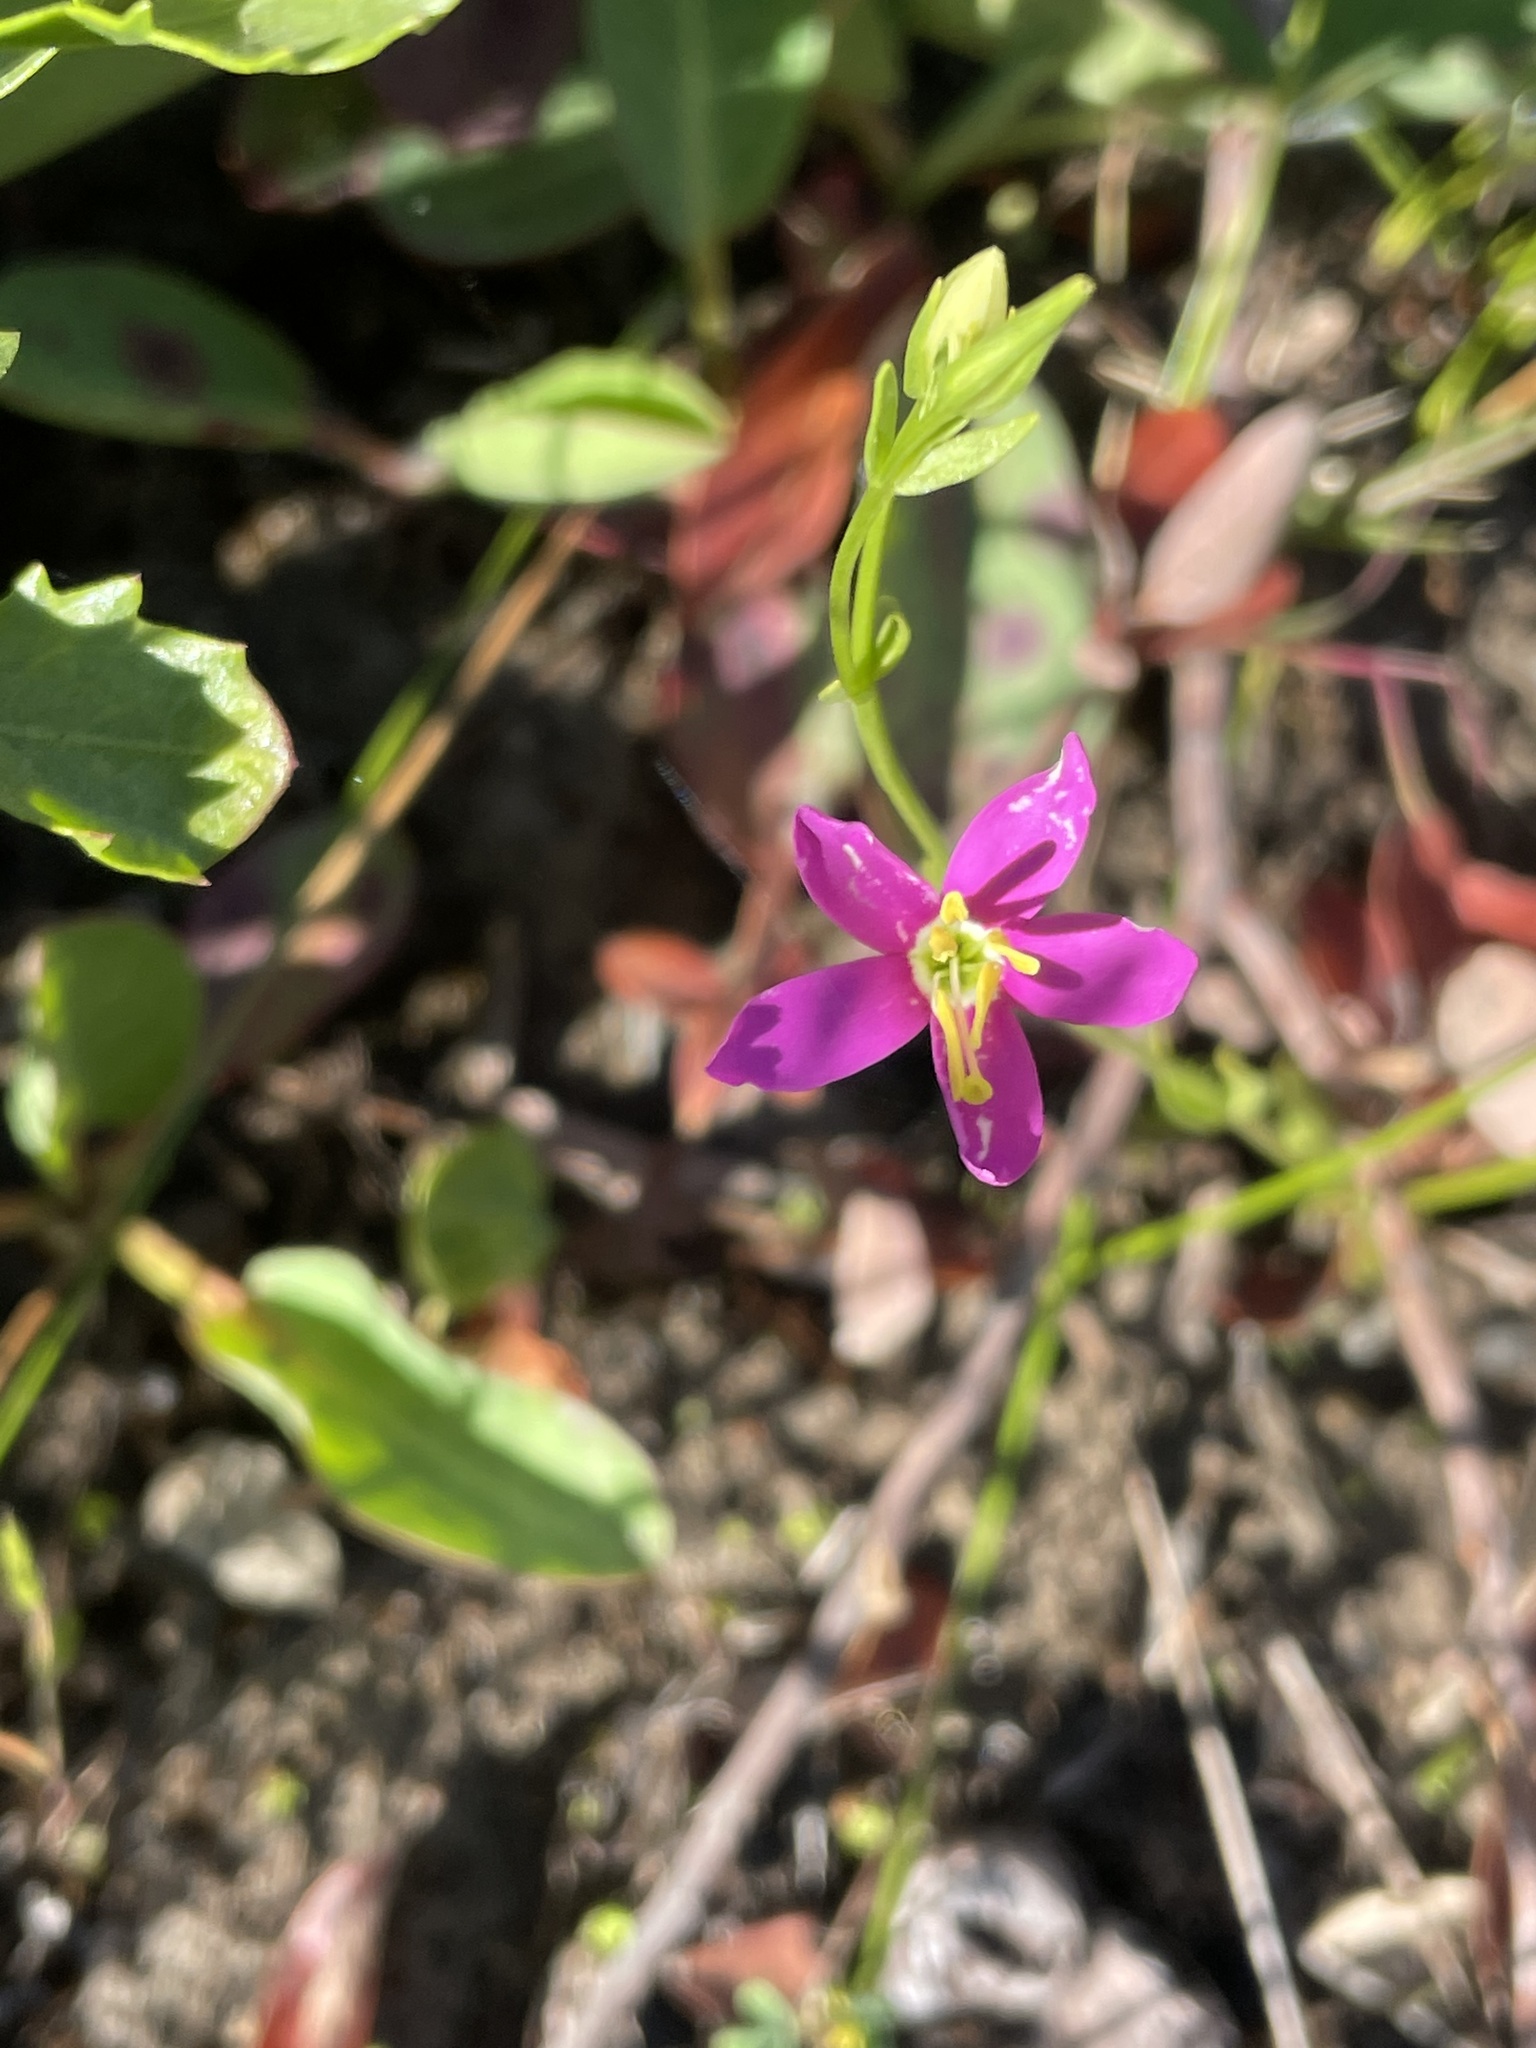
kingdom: Plantae
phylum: Tracheophyta
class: Magnoliopsida
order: Gentianales
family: Gentianaceae
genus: Zeltnera
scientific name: Zeltnera venusta
